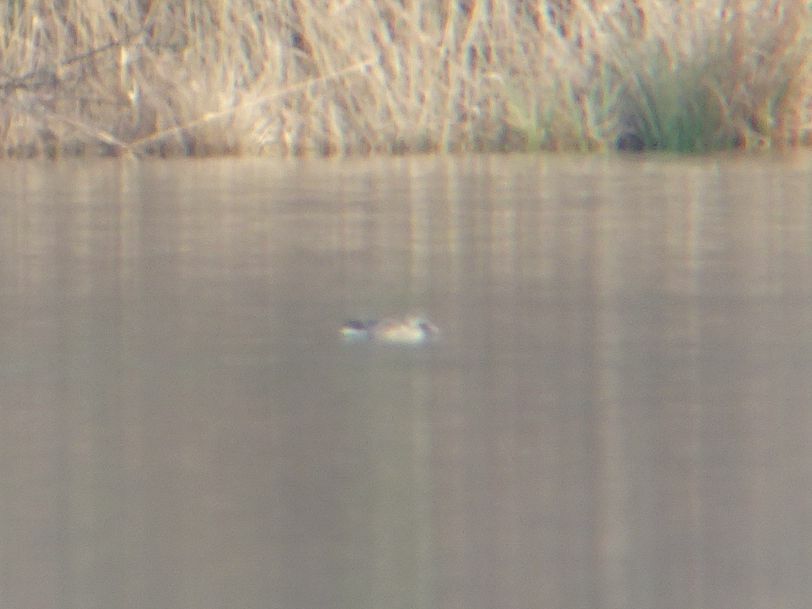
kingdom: Animalia
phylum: Chordata
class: Aves
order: Anseriformes
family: Anatidae
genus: Spatula
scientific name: Spatula clypeata
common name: Northern shoveler
